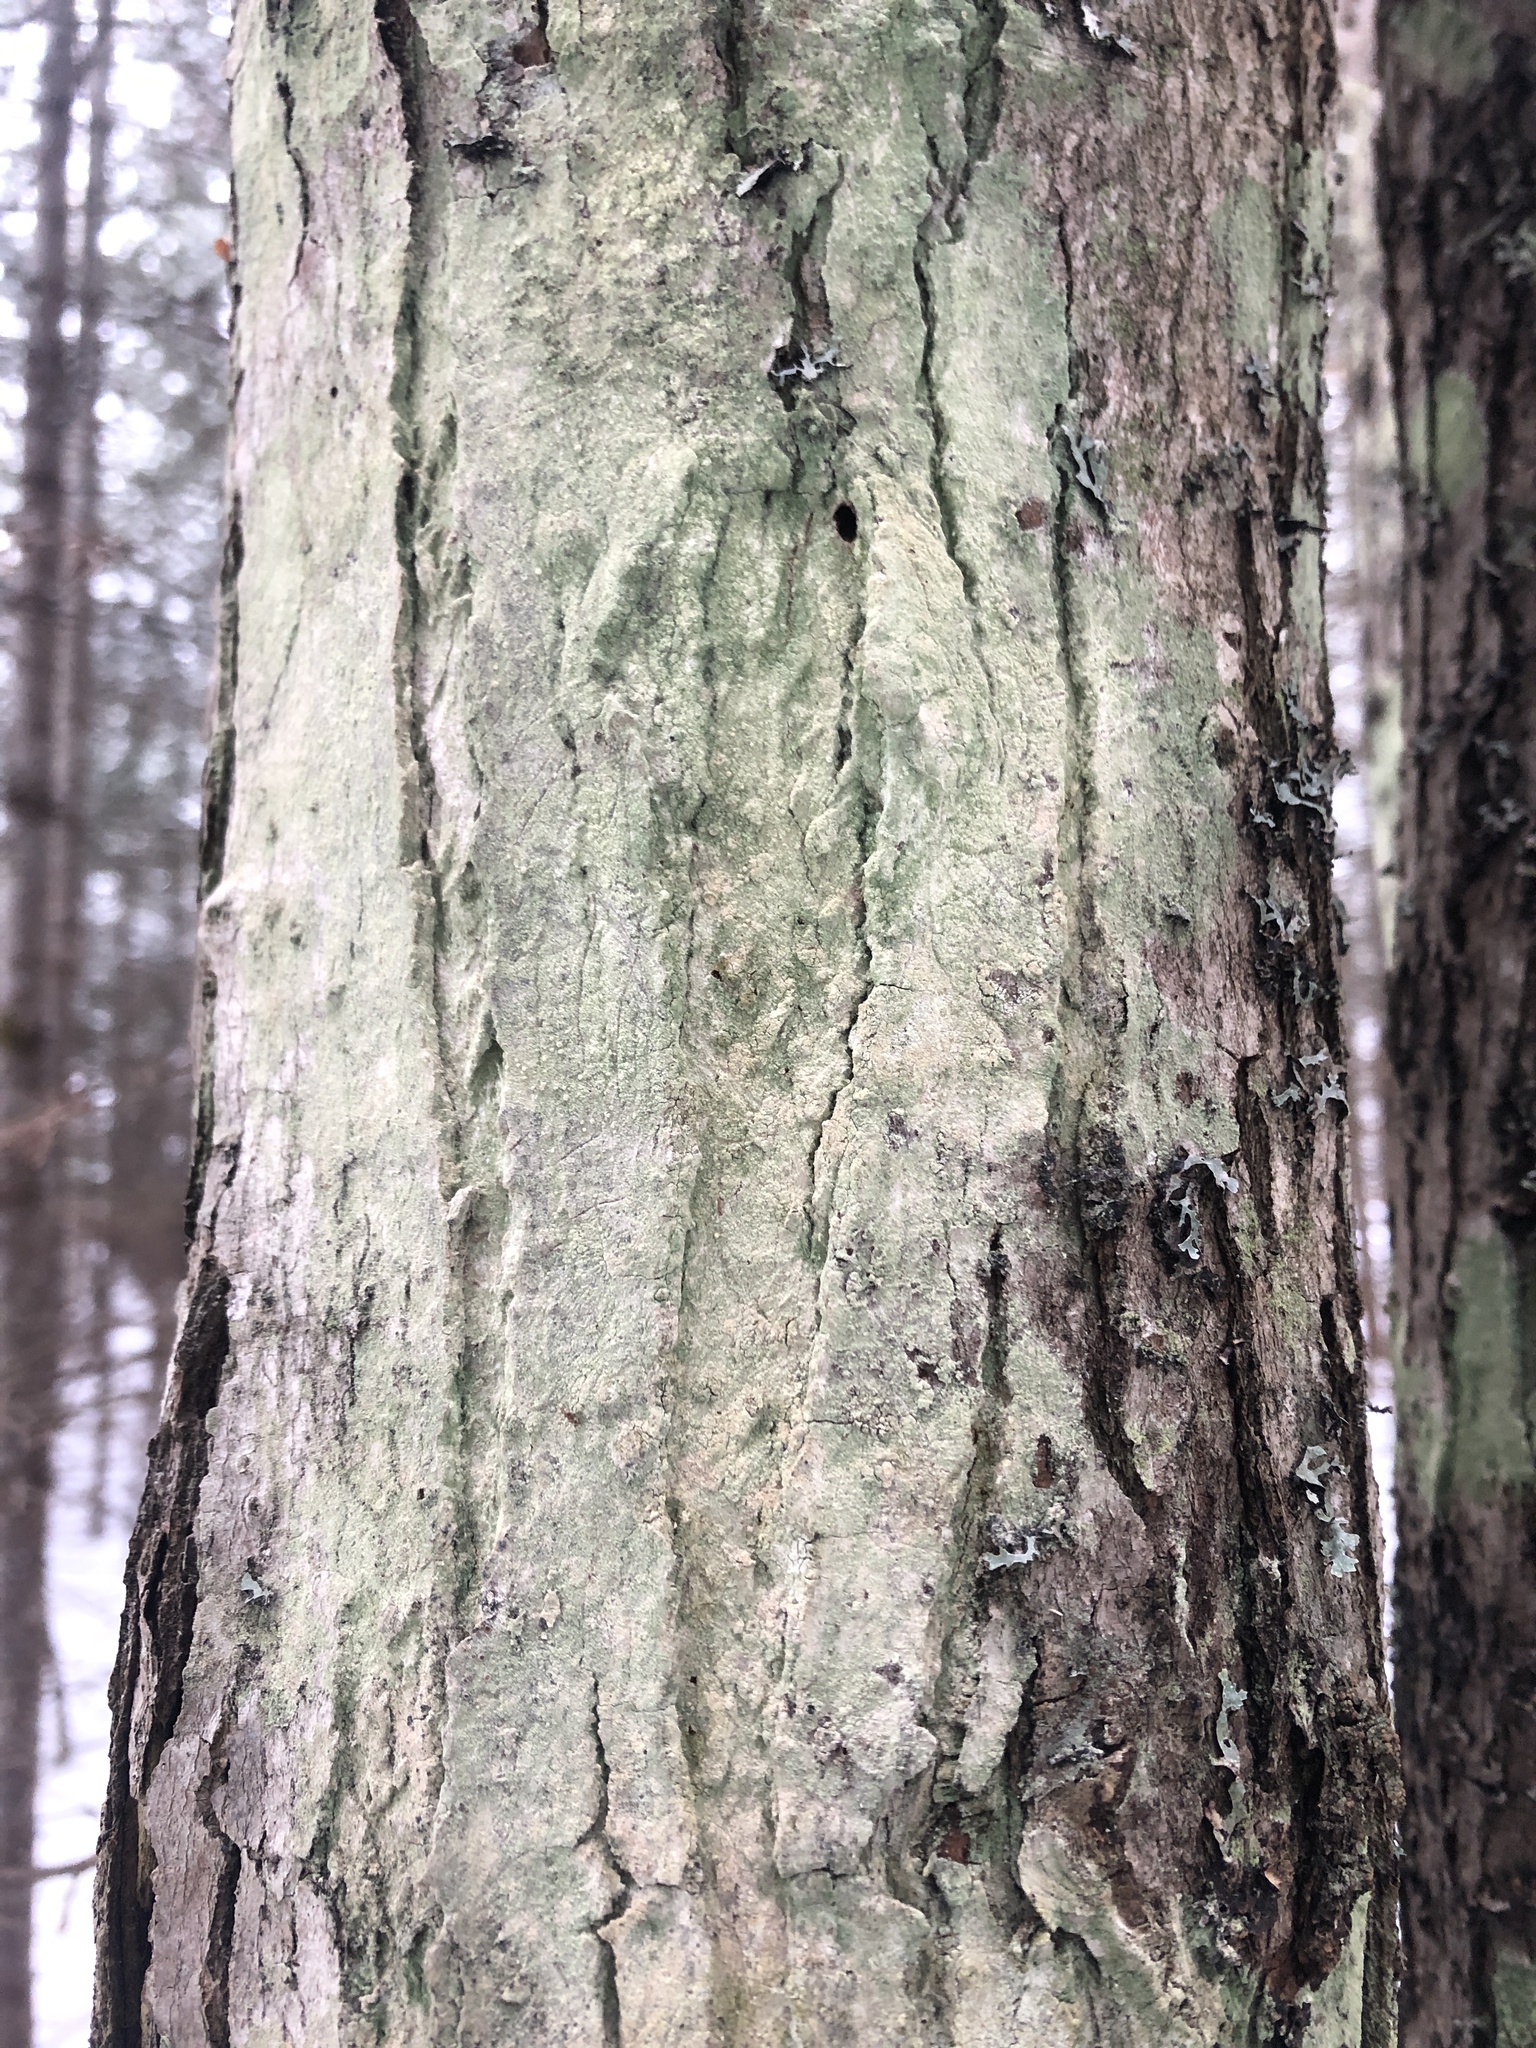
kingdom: Fungi
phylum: Ascomycota
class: Lecanoromycetes
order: Pertusariales
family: Pertusariaceae
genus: Verseghya
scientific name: Verseghya thysanophora
